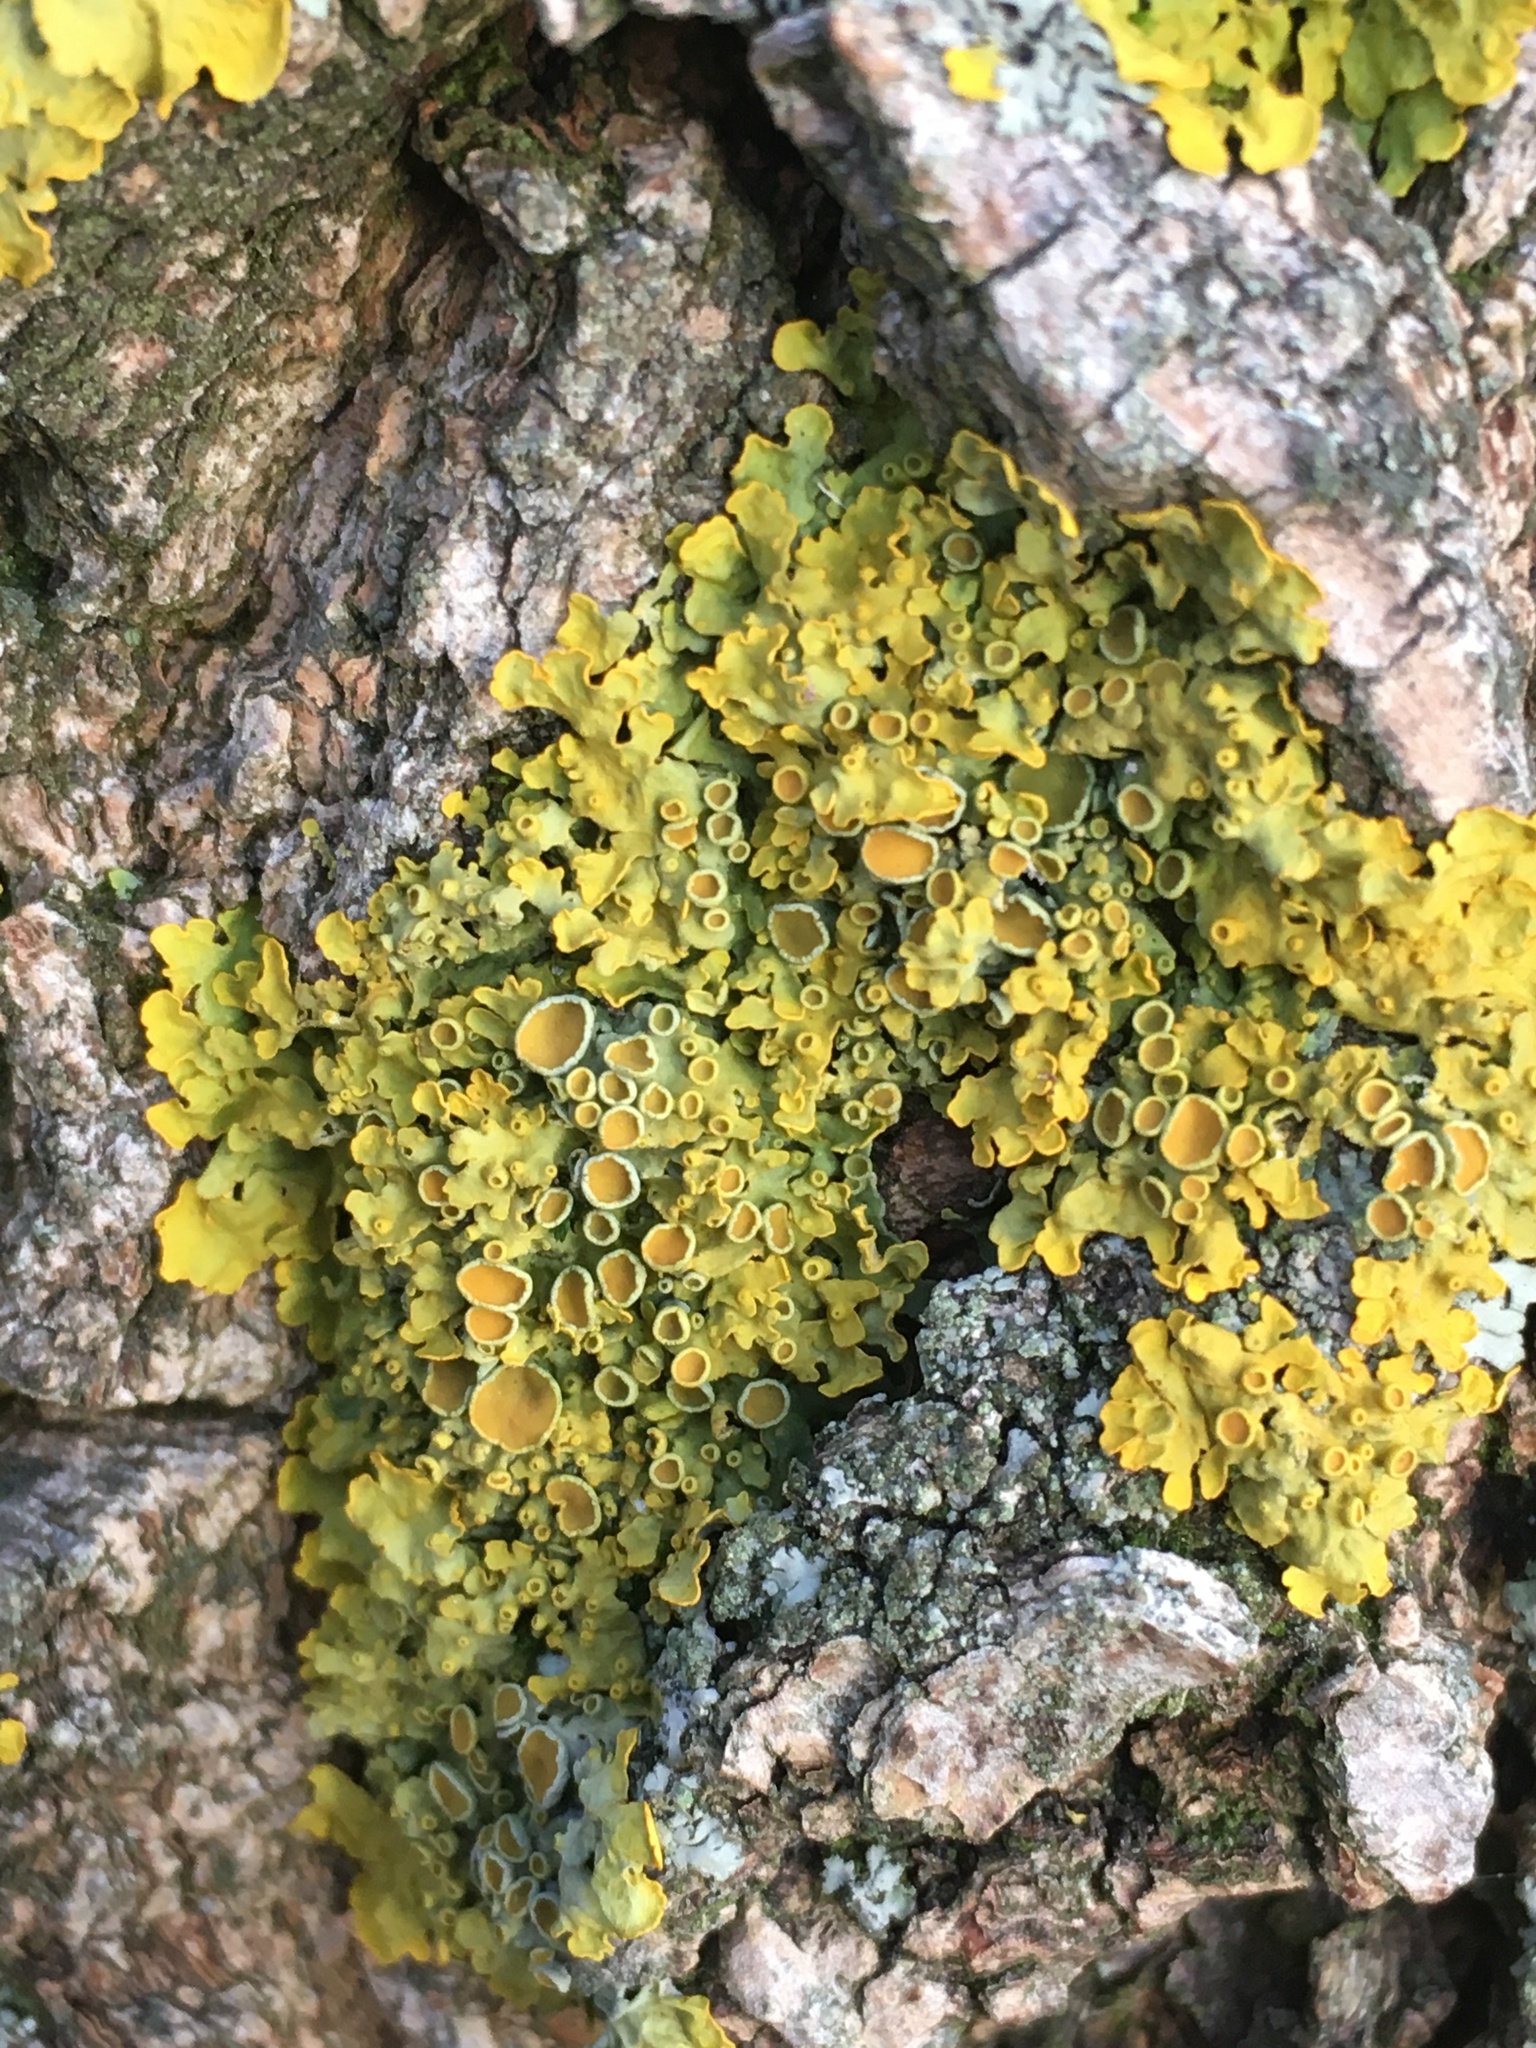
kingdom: Fungi
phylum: Ascomycota
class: Lecanoromycetes
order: Teloschistales
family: Teloschistaceae
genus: Xanthoria
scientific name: Xanthoria parietina
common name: Common orange lichen
